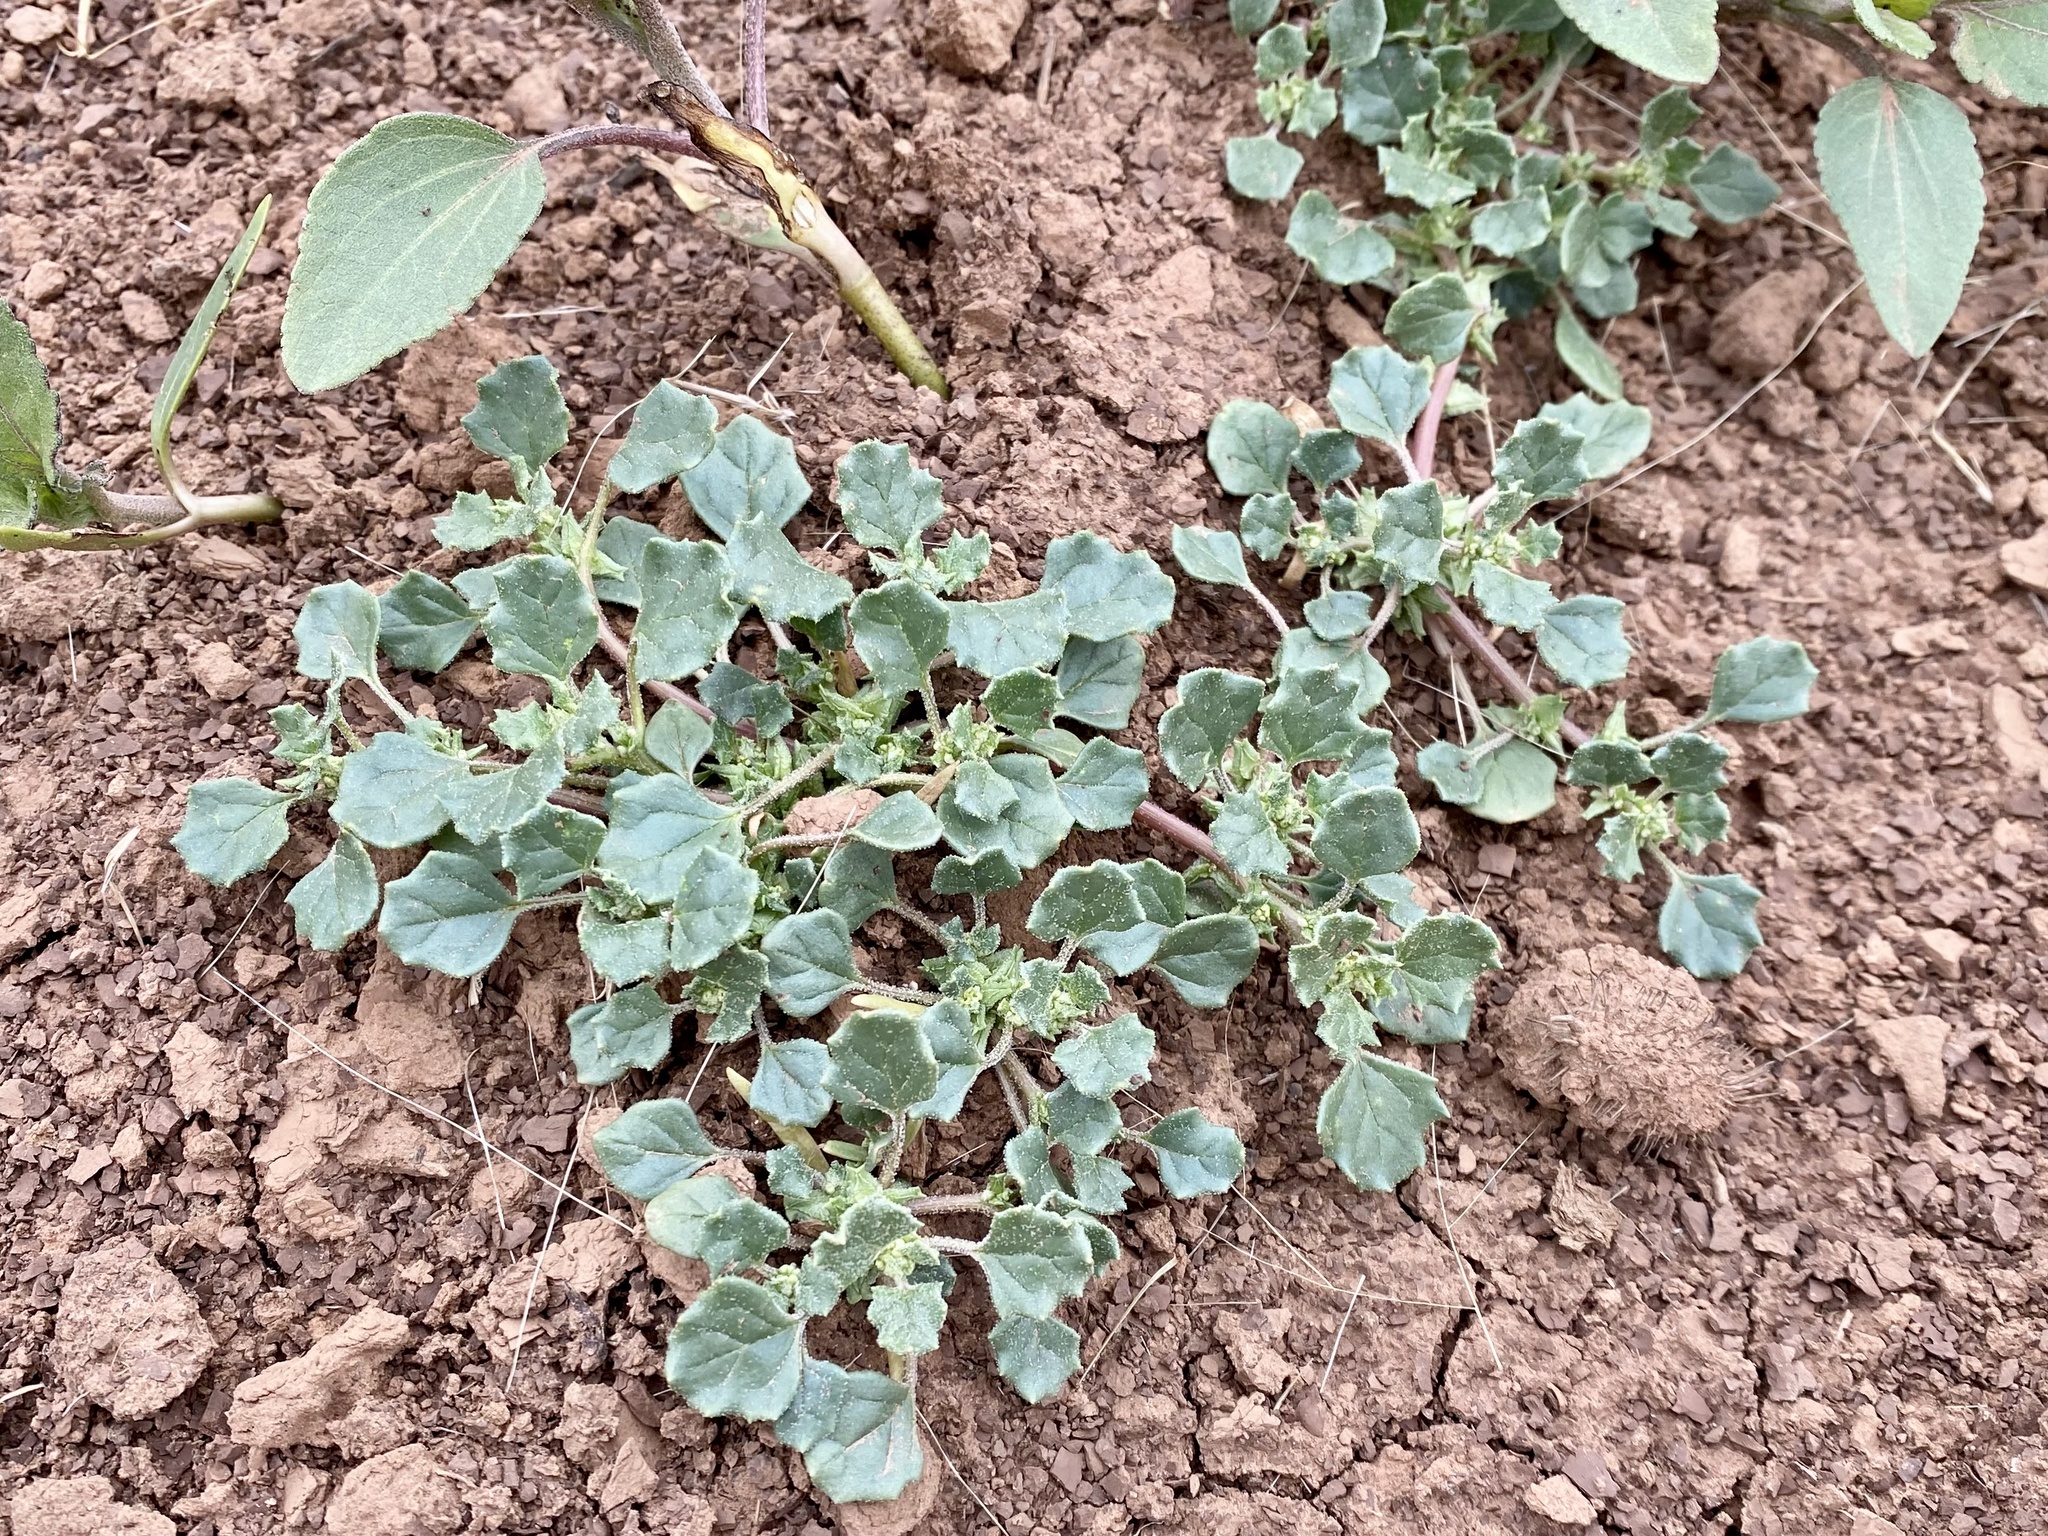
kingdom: Plantae
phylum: Tracheophyta
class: Magnoliopsida
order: Caryophyllales
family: Amaranthaceae
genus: Suckleya
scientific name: Suckleya suckleyana
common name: Poison suckleya
